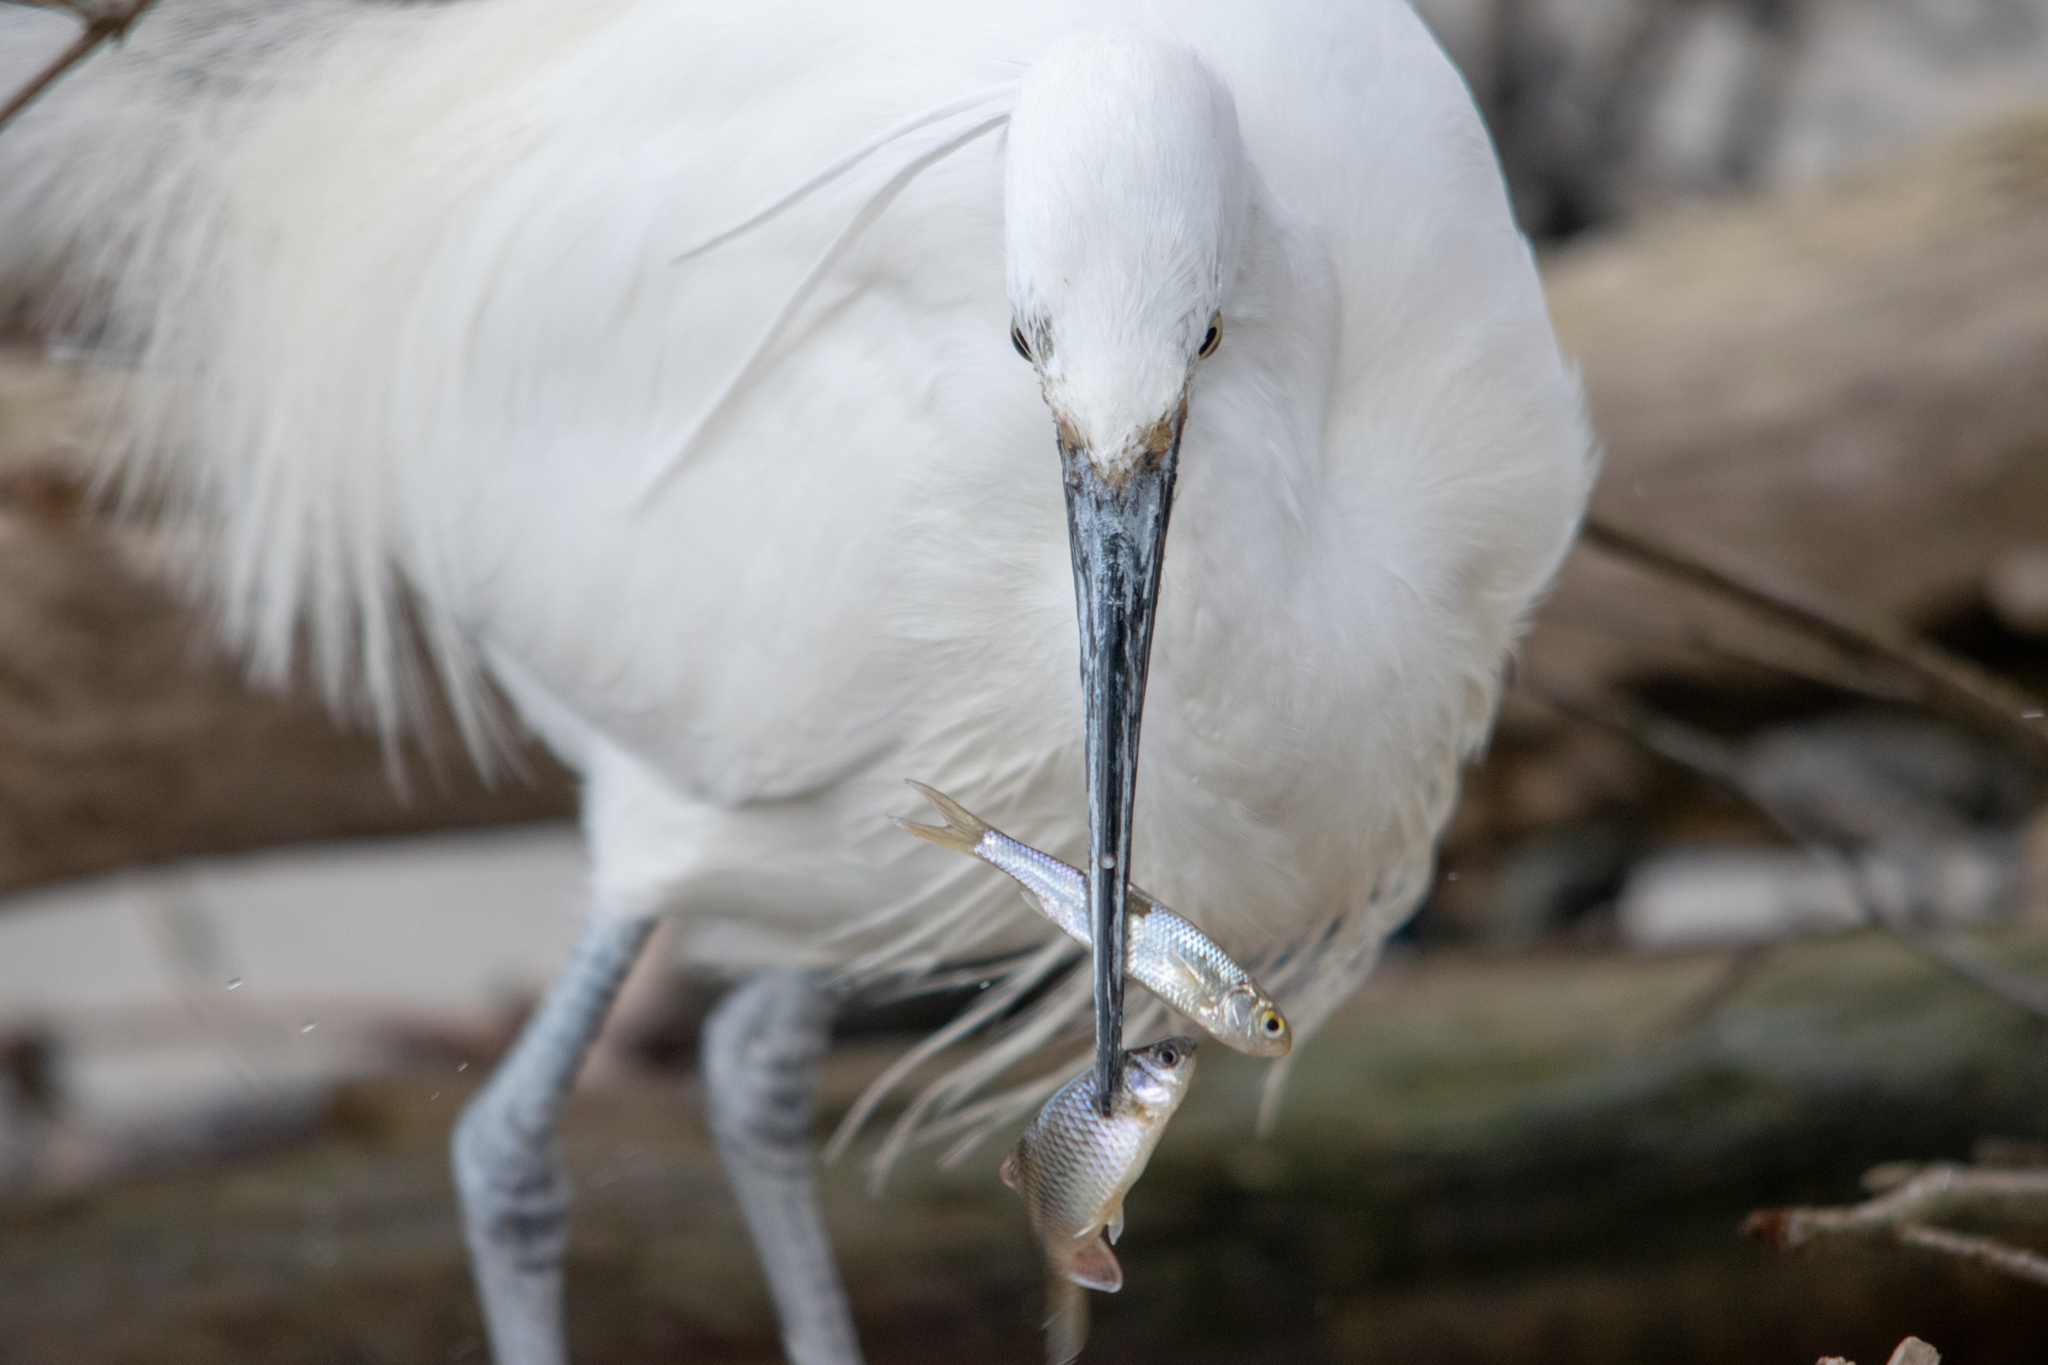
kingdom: Animalia
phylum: Chordata
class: Aves
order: Pelecaniformes
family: Ardeidae
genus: Egretta
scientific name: Egretta garzetta
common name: Little egret
